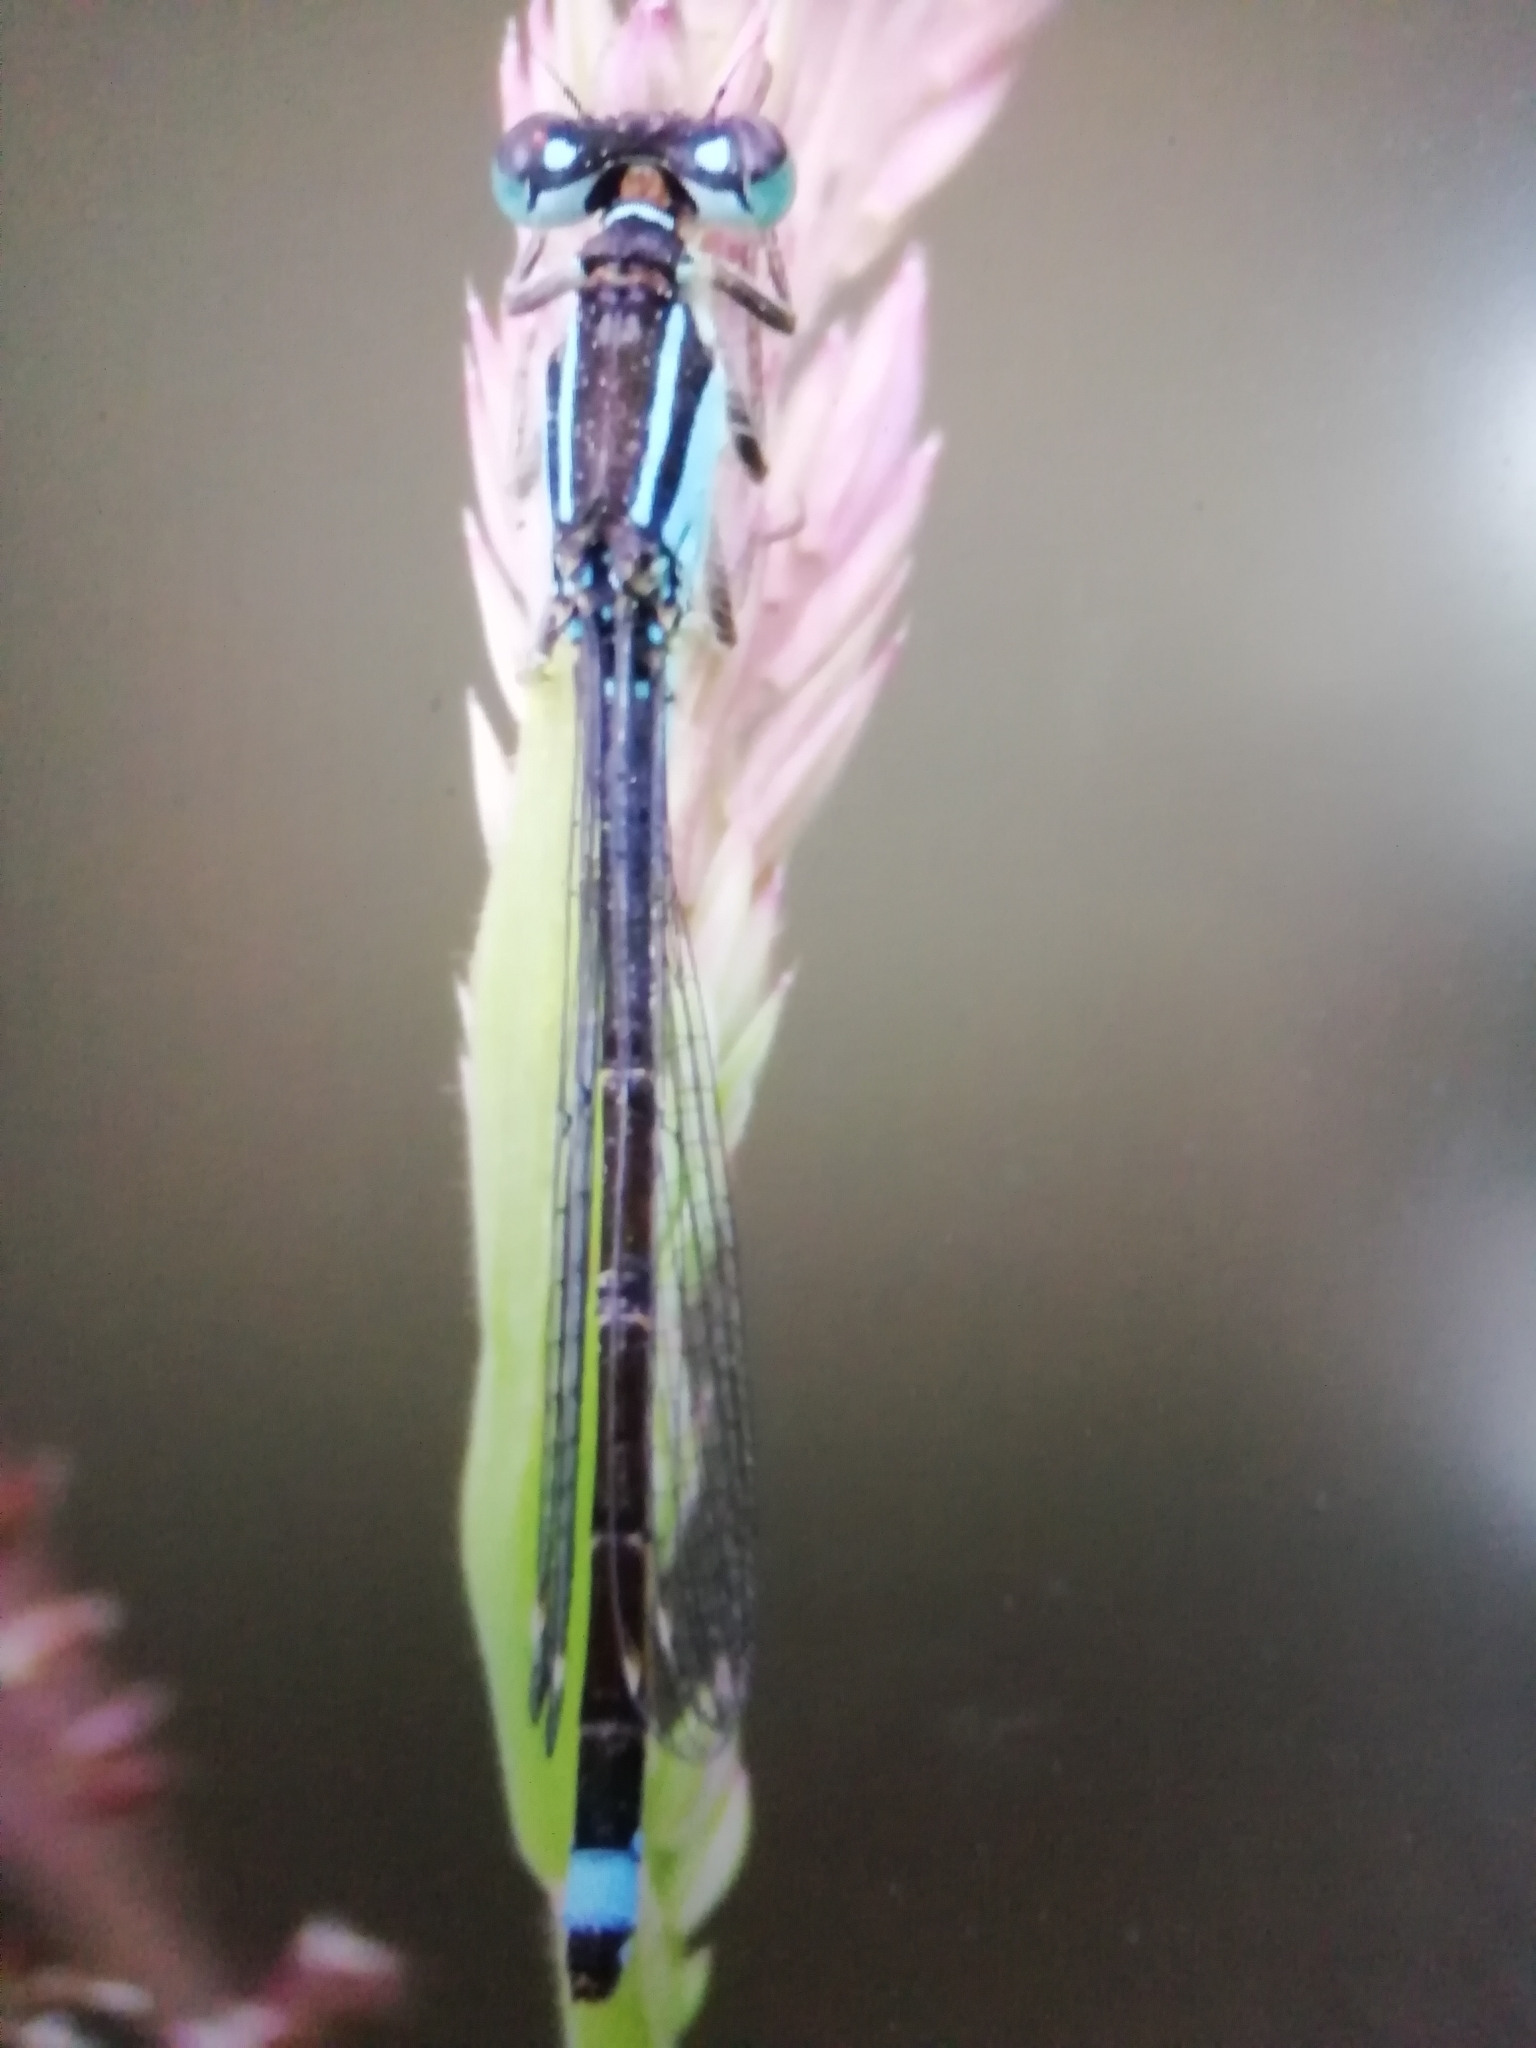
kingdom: Animalia
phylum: Arthropoda
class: Insecta
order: Odonata
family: Coenagrionidae
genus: Ischnura
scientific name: Ischnura elegans
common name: Blue-tailed damselfly
